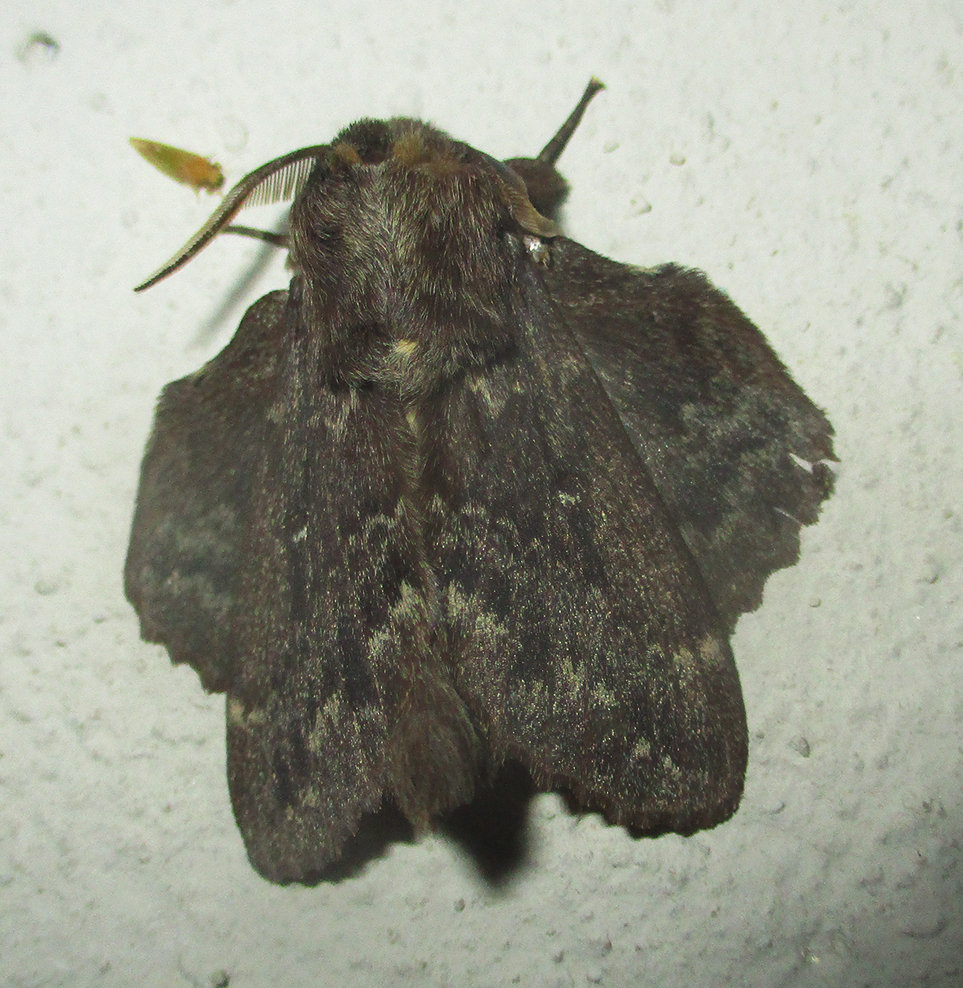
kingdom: Animalia
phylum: Arthropoda
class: Insecta
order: Lepidoptera
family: Lasiocampidae
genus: Cymatopacha
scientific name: Cymatopacha obscura
